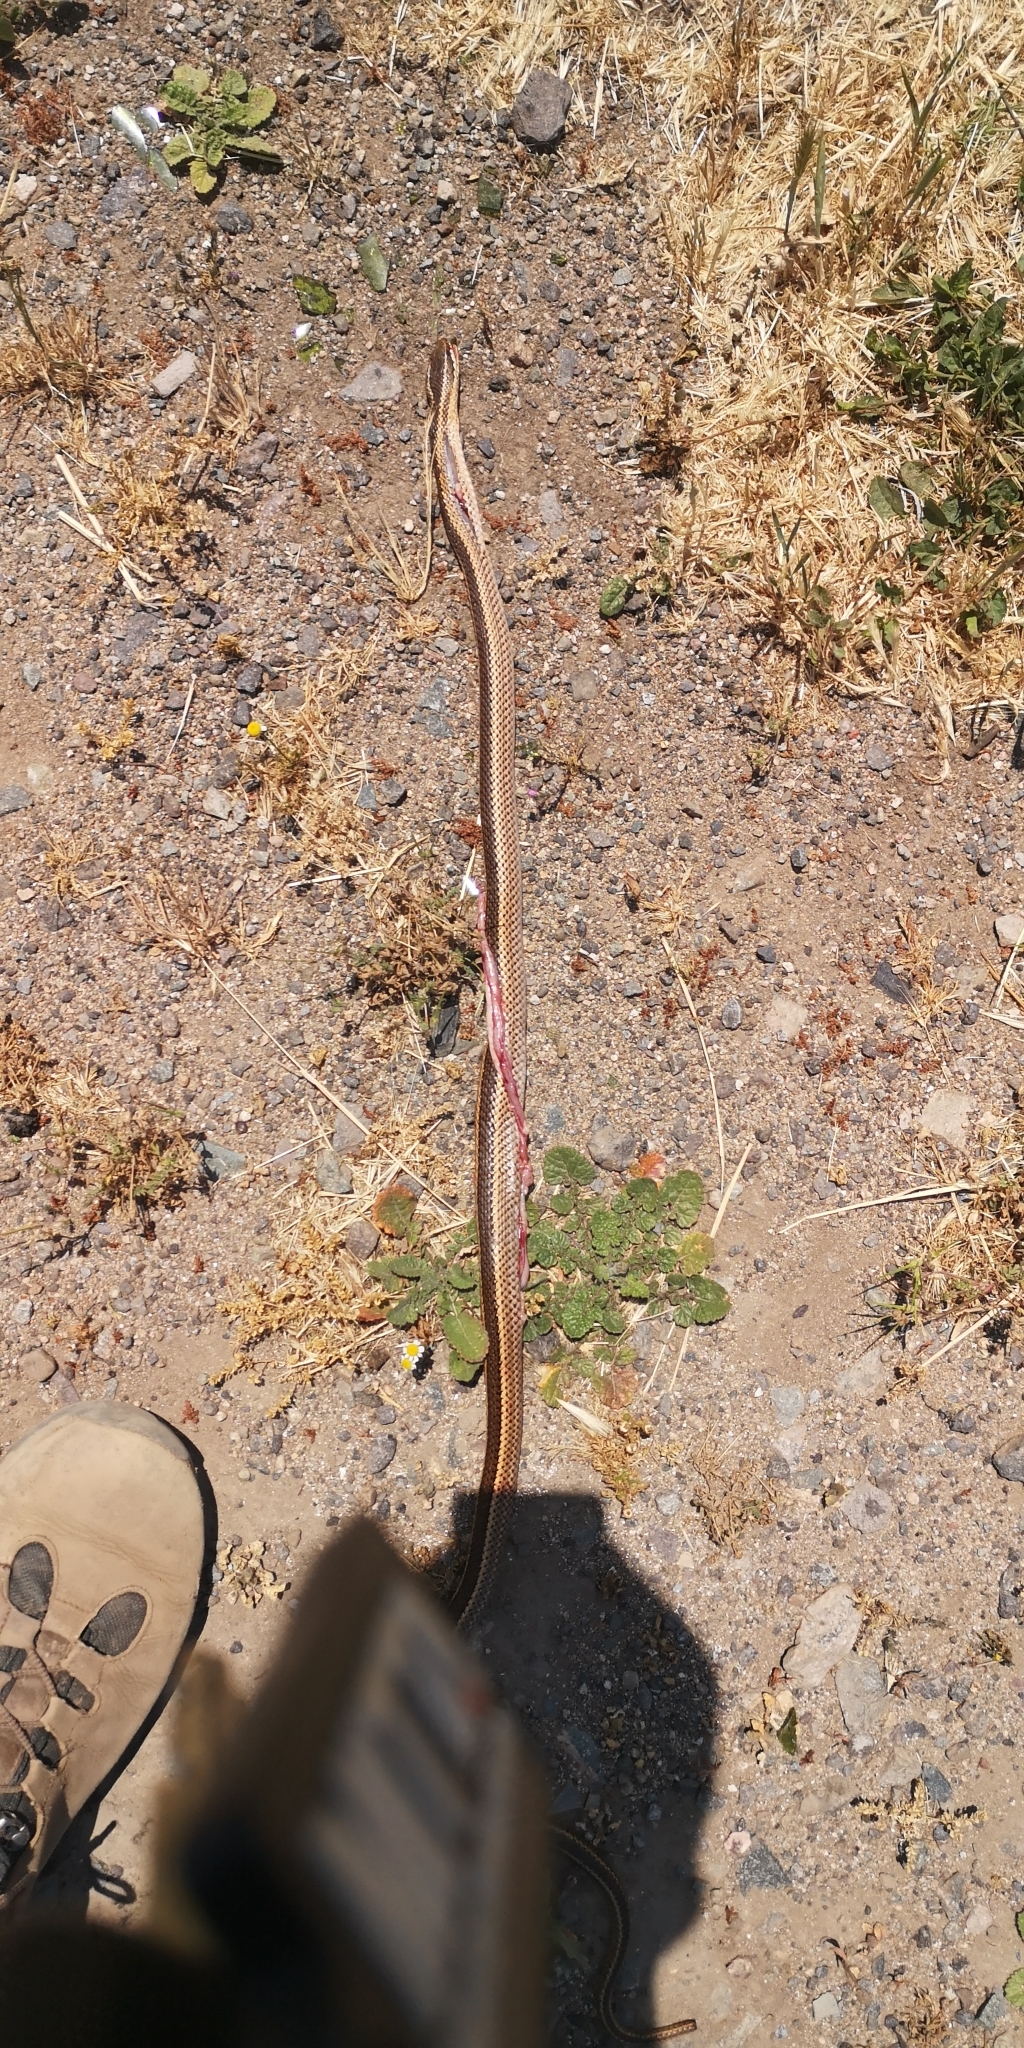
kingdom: Animalia
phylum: Chordata
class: Squamata
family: Colubridae
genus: Philodryas
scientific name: Philodryas chamissonis
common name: Chilean green racer
